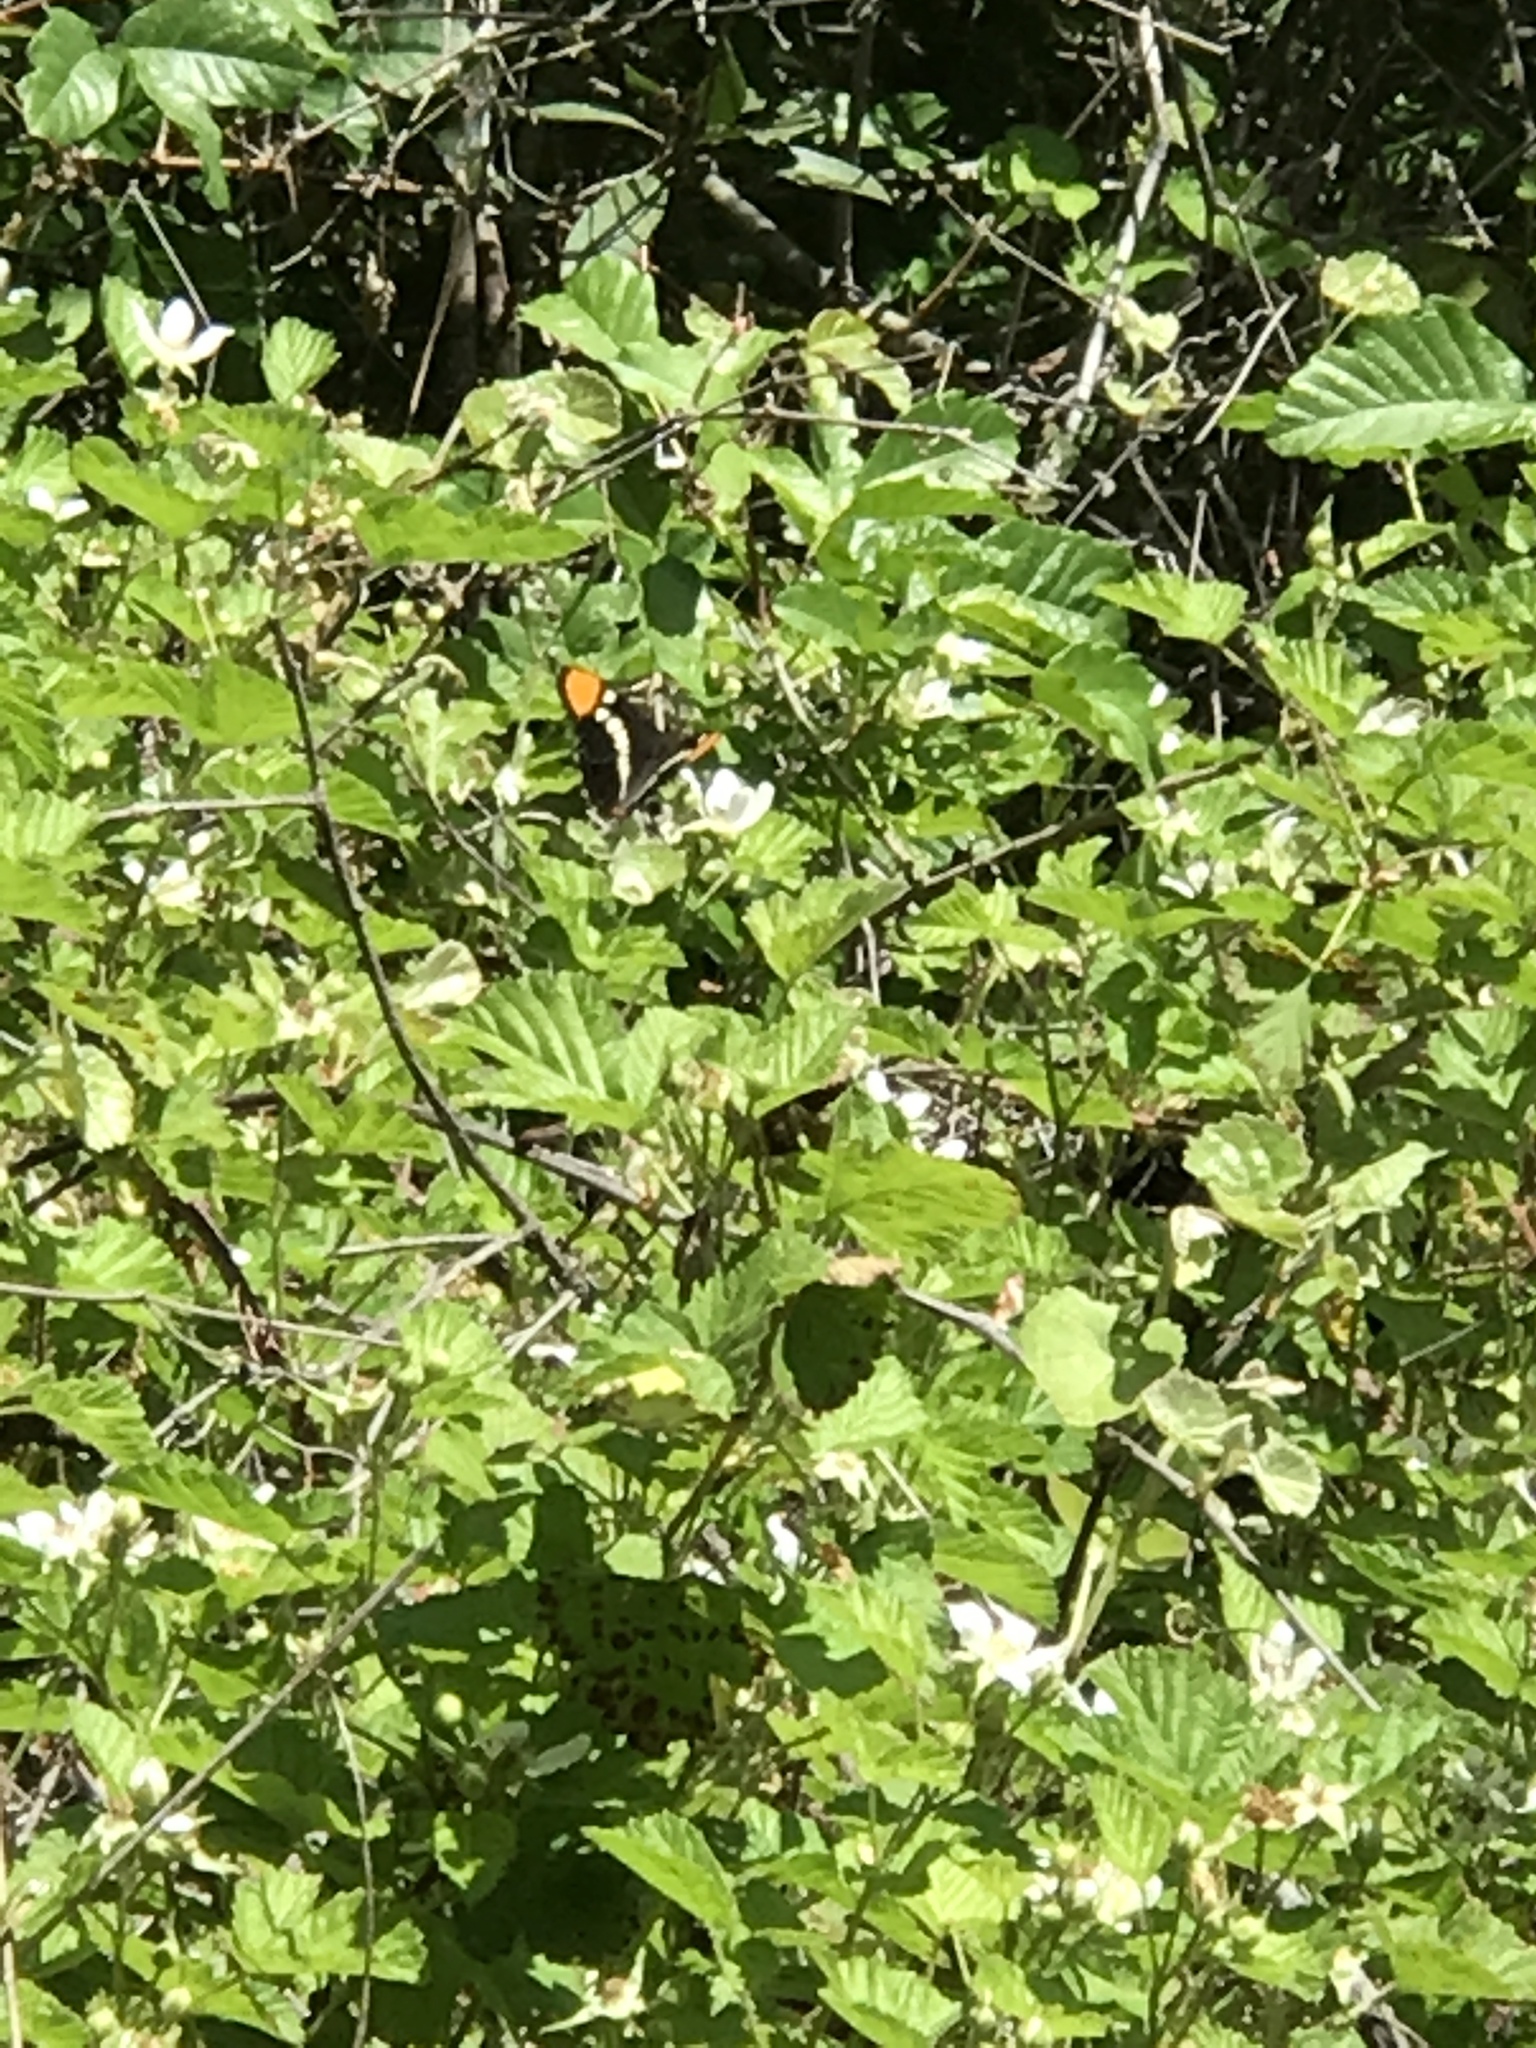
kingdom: Animalia
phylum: Arthropoda
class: Insecta
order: Lepidoptera
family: Nymphalidae
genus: Limenitis
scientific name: Limenitis bredowii
